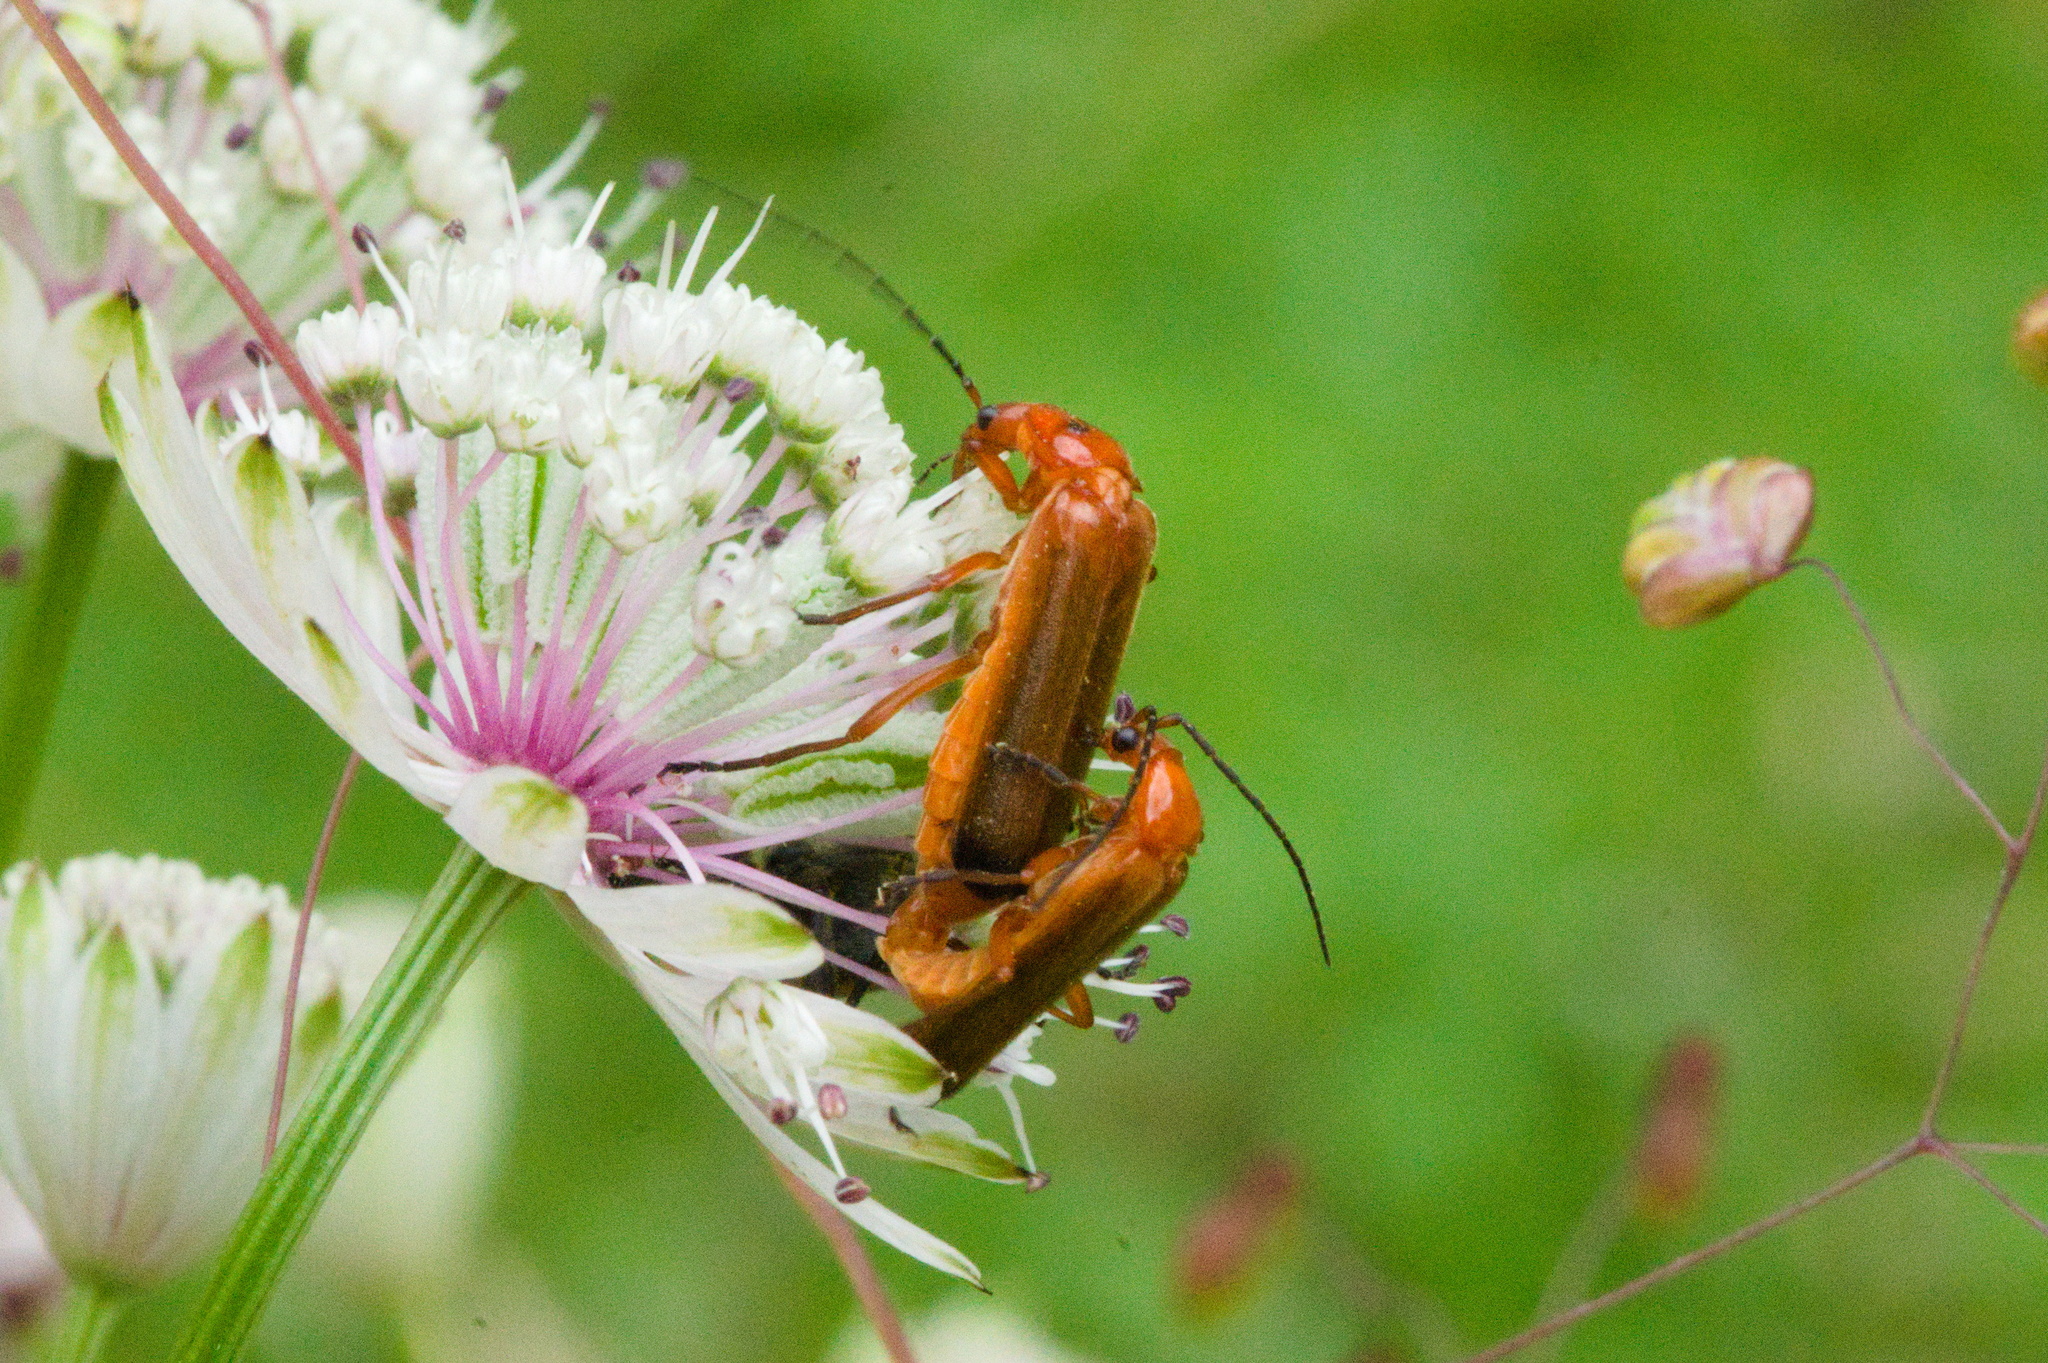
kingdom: Animalia
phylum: Arthropoda
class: Insecta
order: Coleoptera
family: Cantharidae
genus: Rhagonycha
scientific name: Rhagonycha fulva
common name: Common red soldier beetle
